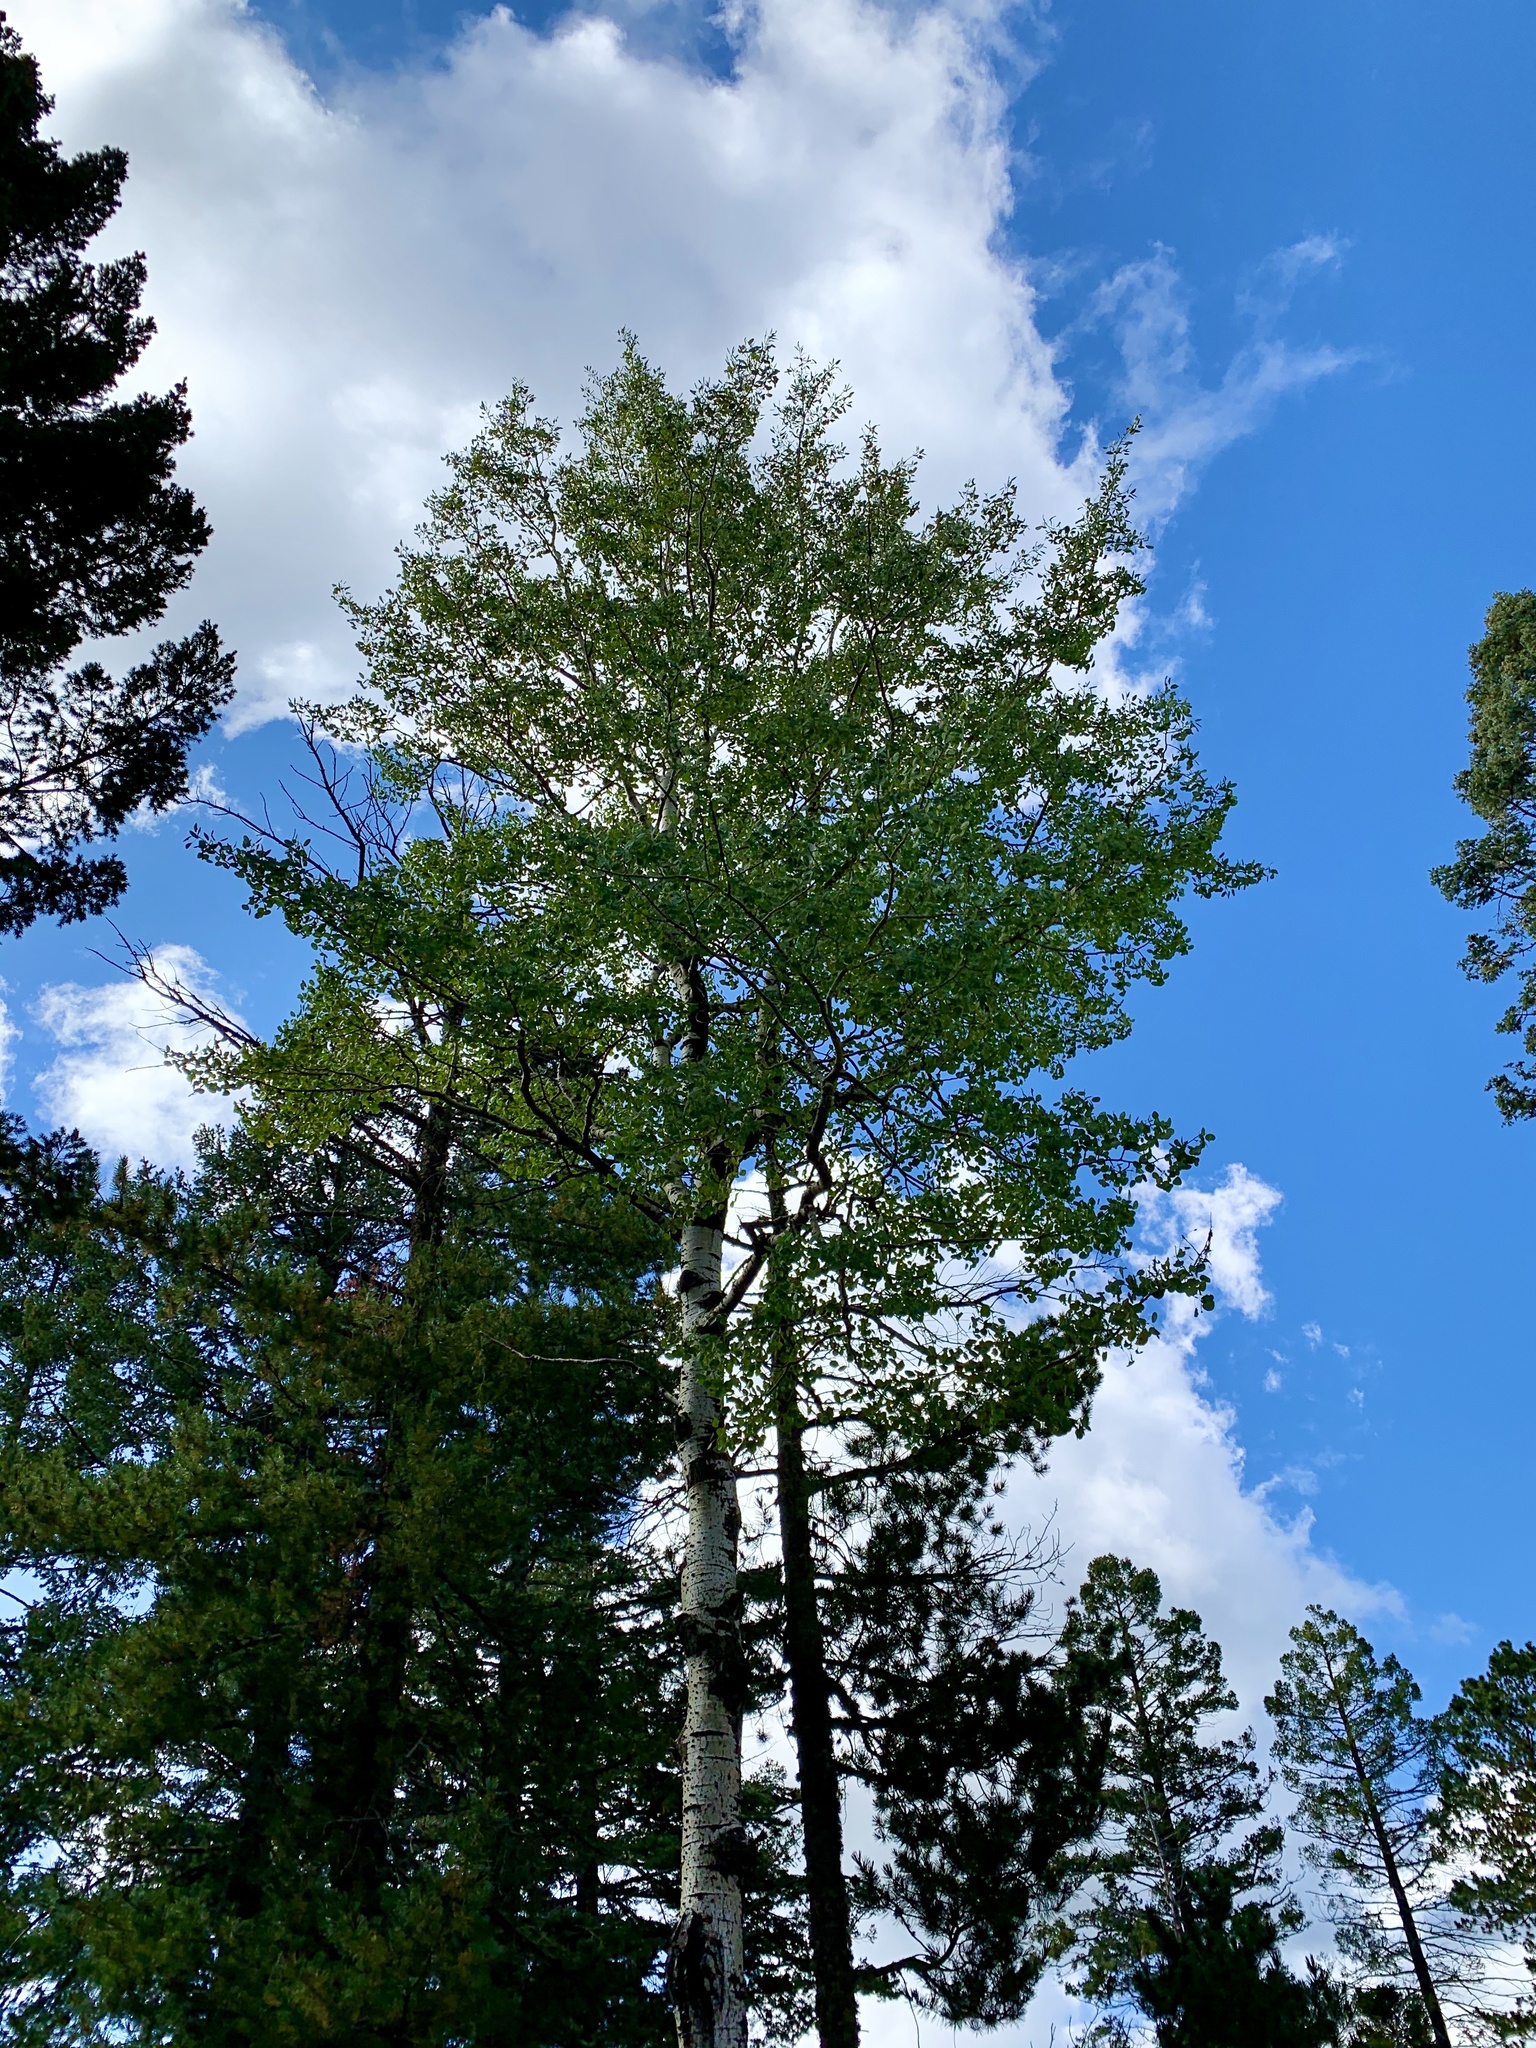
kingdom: Plantae
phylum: Tracheophyta
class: Magnoliopsida
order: Malpighiales
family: Salicaceae
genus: Populus
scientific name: Populus tremuloides
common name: Quaking aspen
